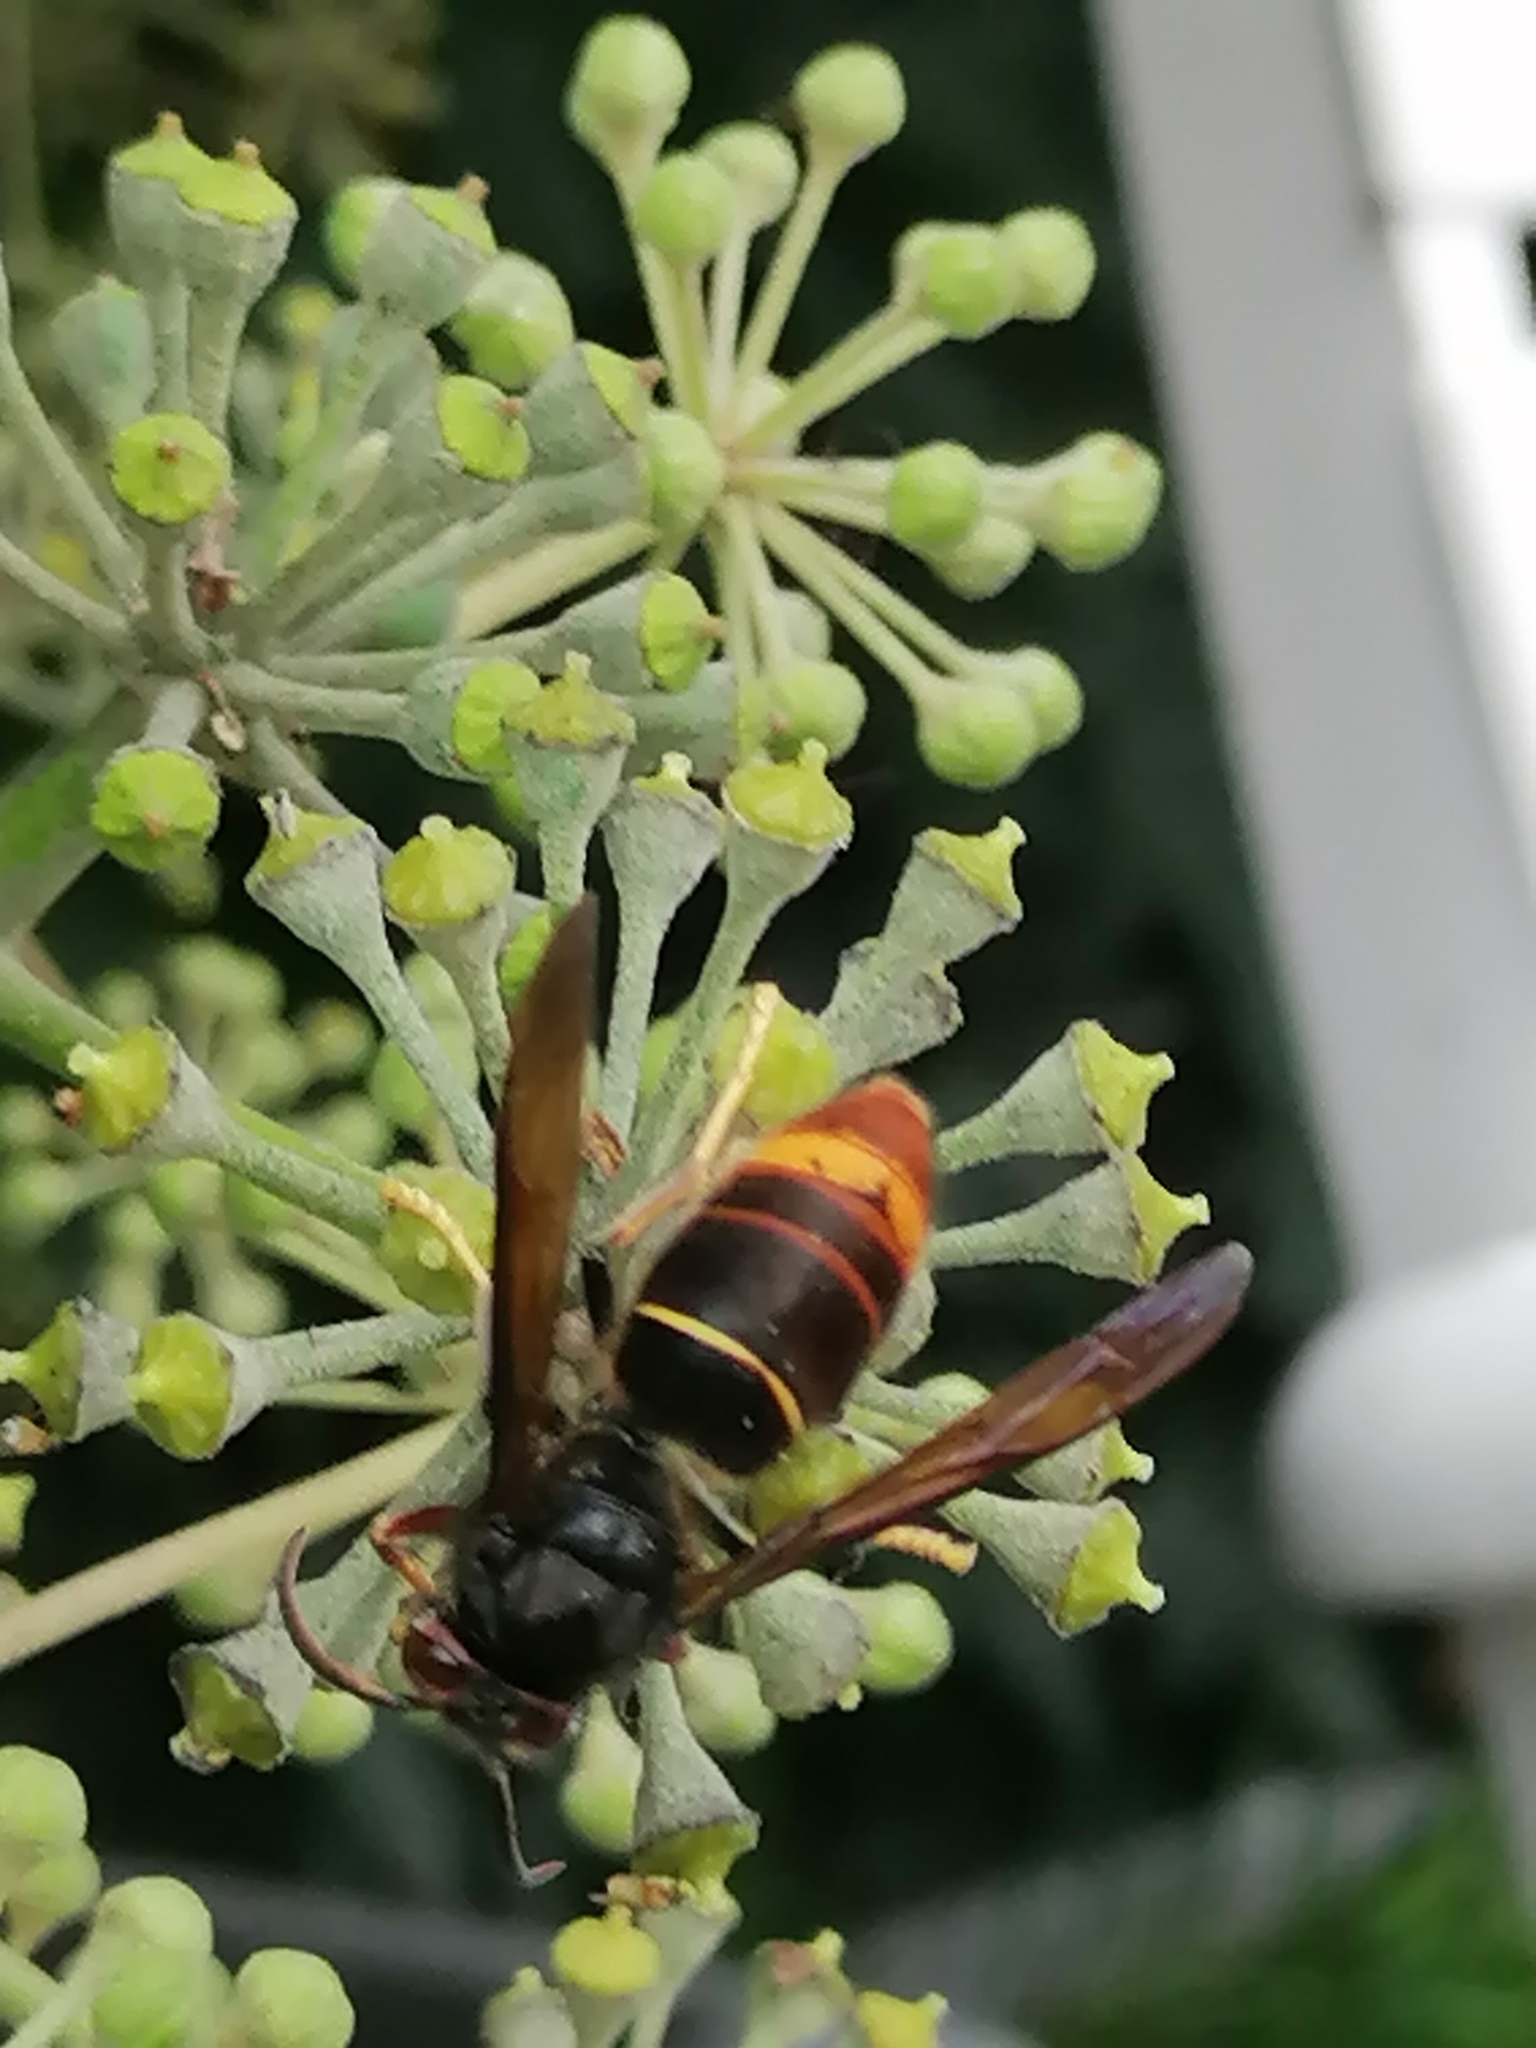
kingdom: Animalia
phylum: Arthropoda
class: Insecta
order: Hymenoptera
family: Vespidae
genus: Vespa
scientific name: Vespa velutina
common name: Asian hornet
